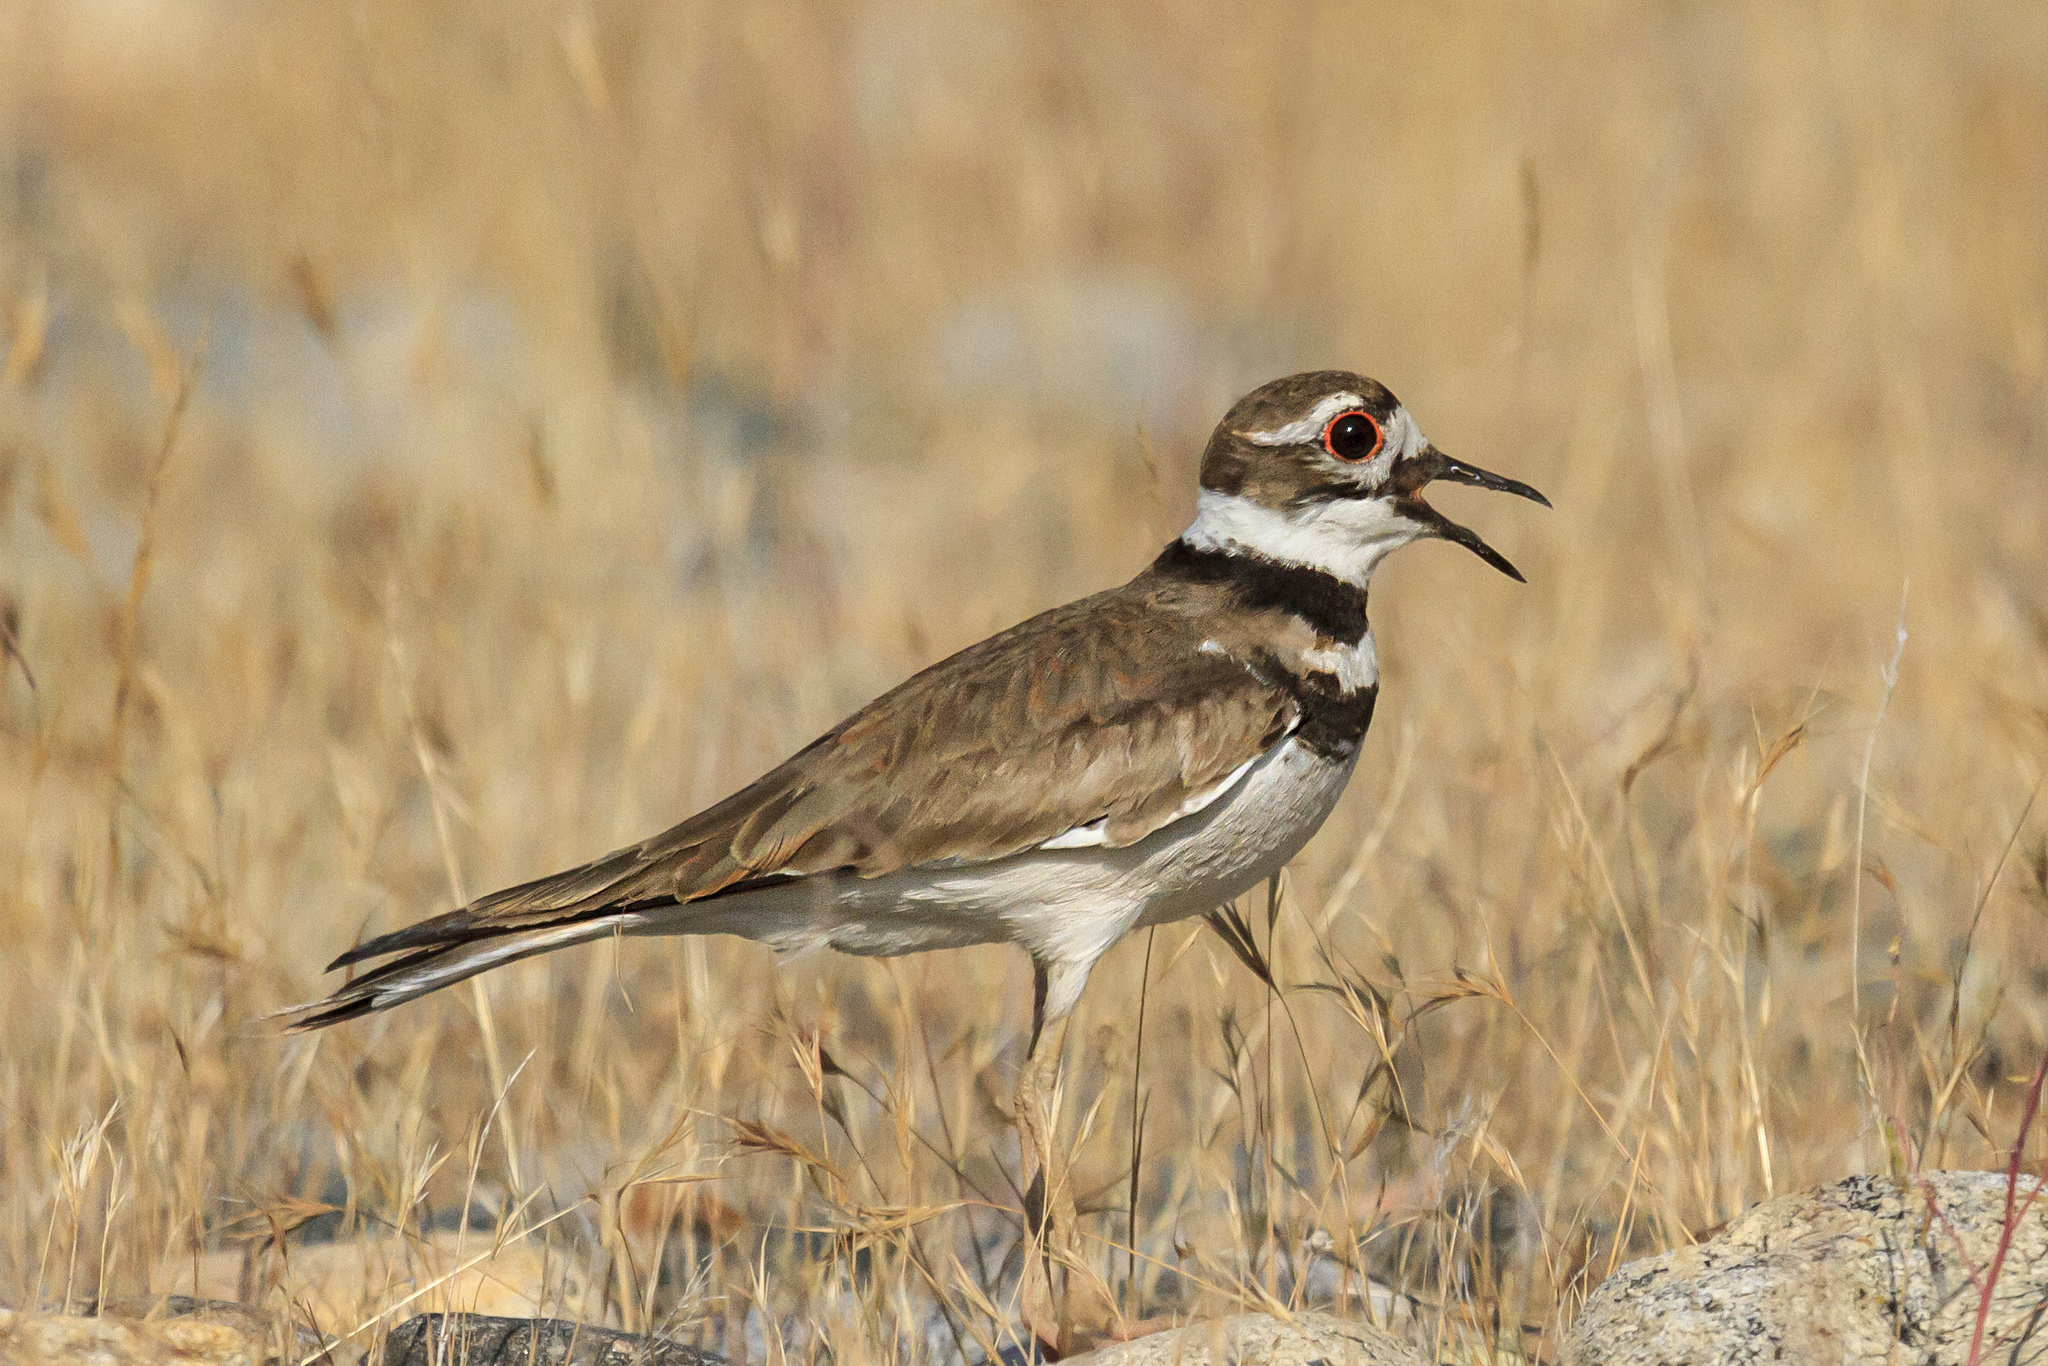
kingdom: Animalia
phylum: Chordata
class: Aves
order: Charadriiformes
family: Charadriidae
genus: Charadrius
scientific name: Charadrius vociferus
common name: Killdeer
